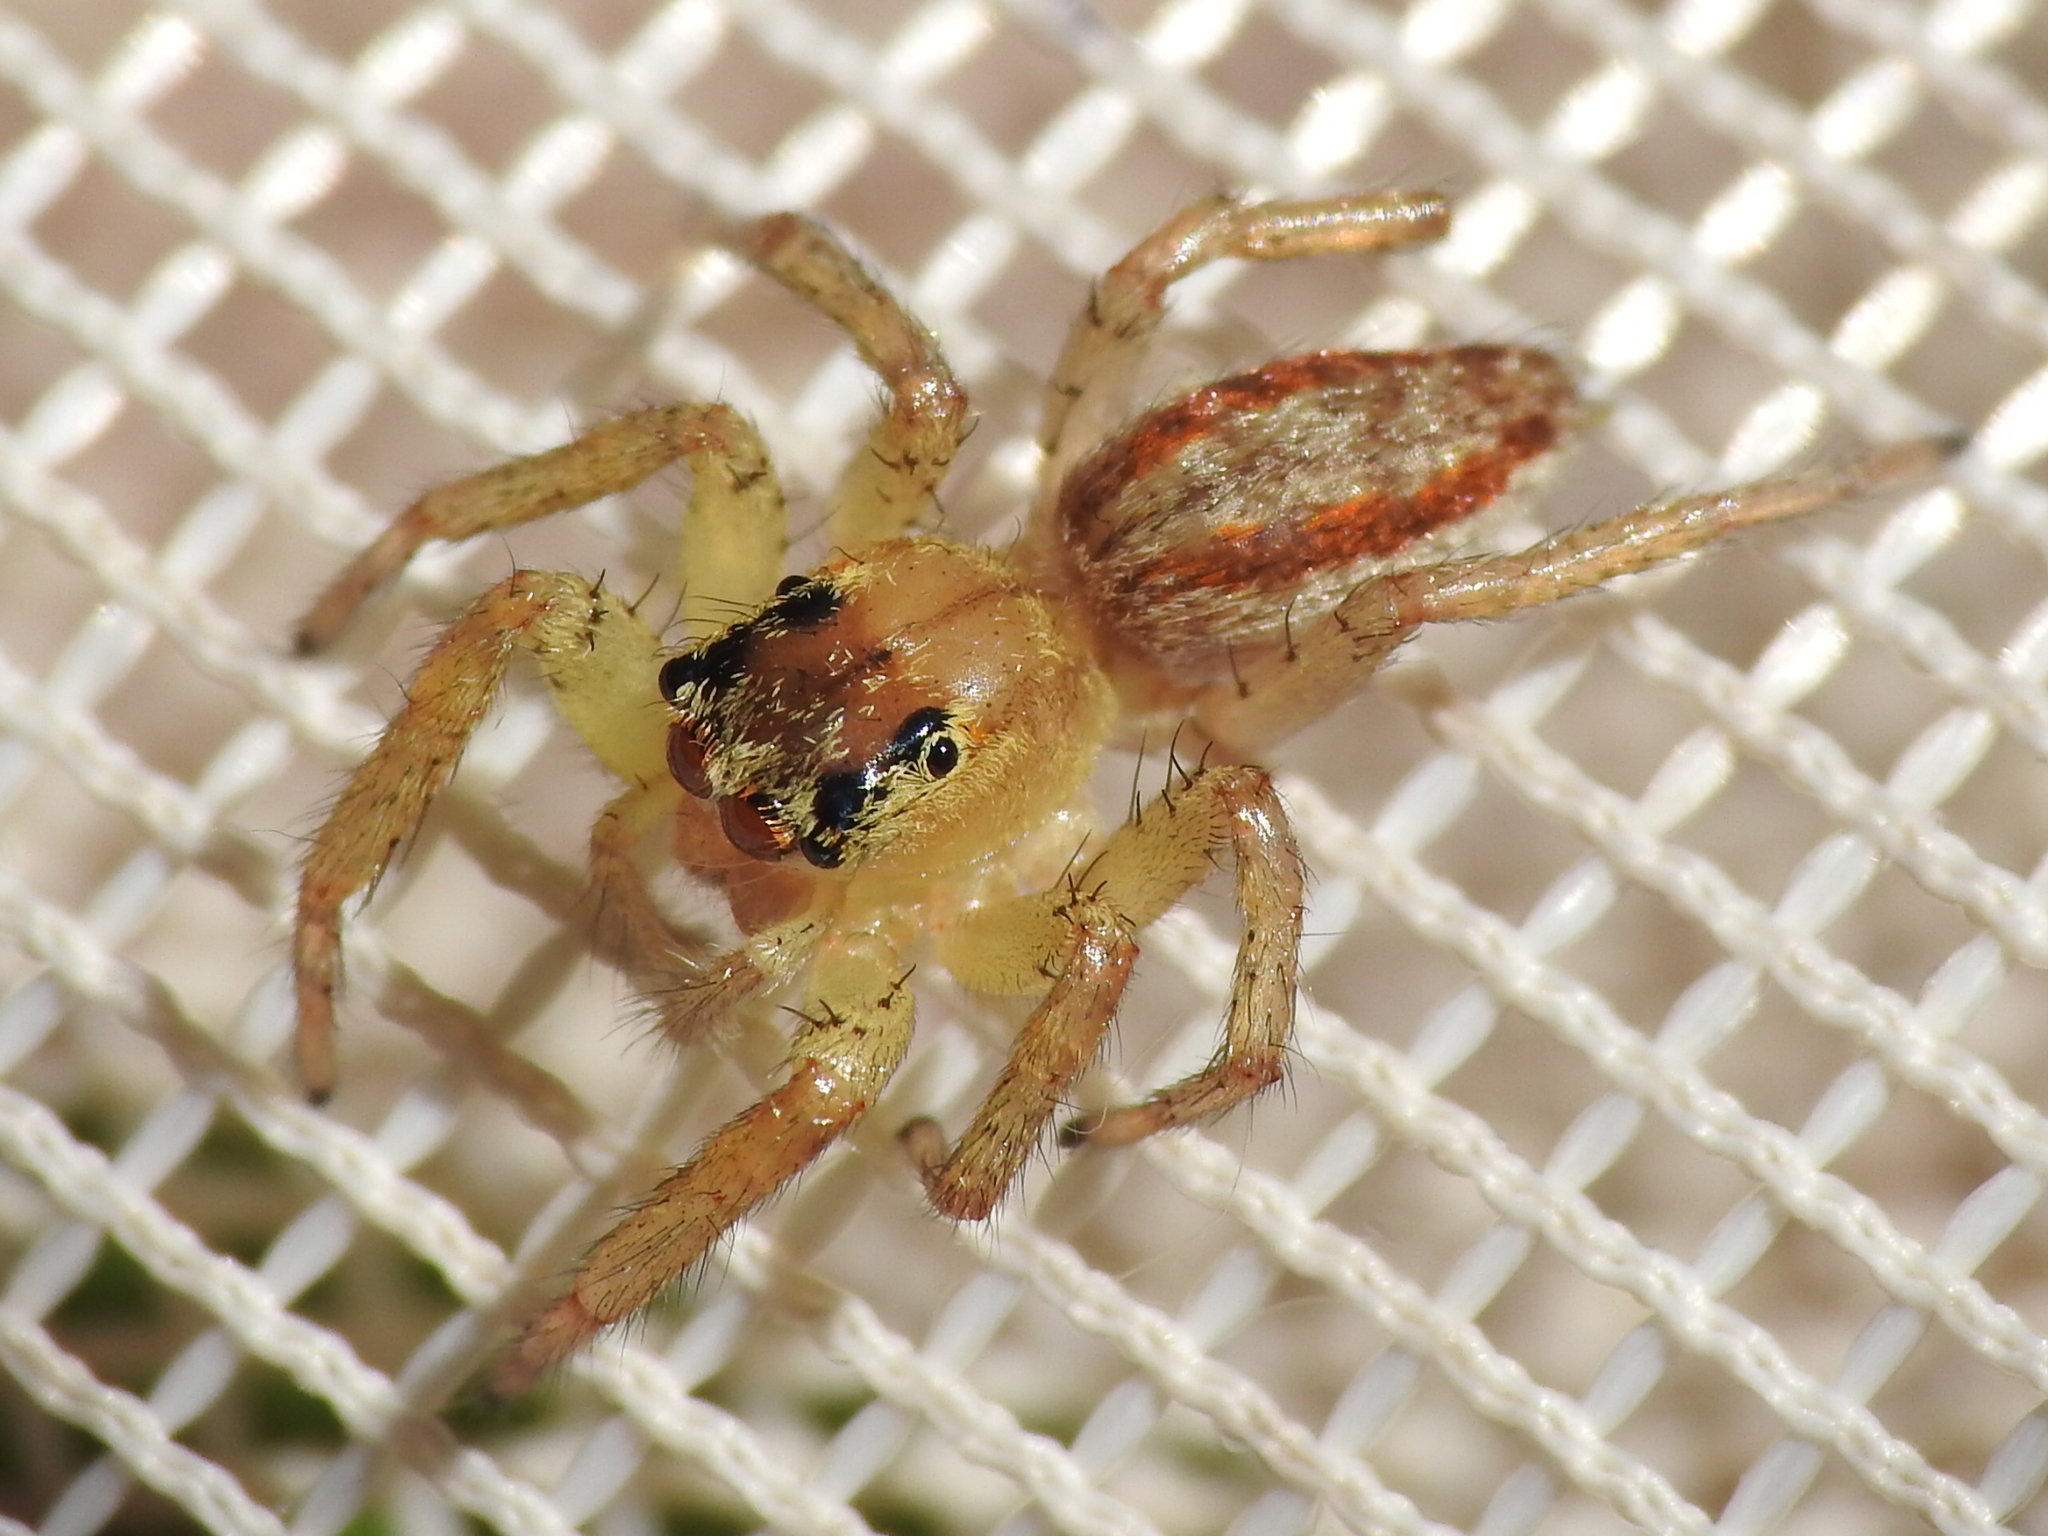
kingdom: Animalia
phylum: Arthropoda
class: Arachnida
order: Araneae
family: Salticidae
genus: Maevia
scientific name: Maevia inclemens
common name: Dimorphic jumper
